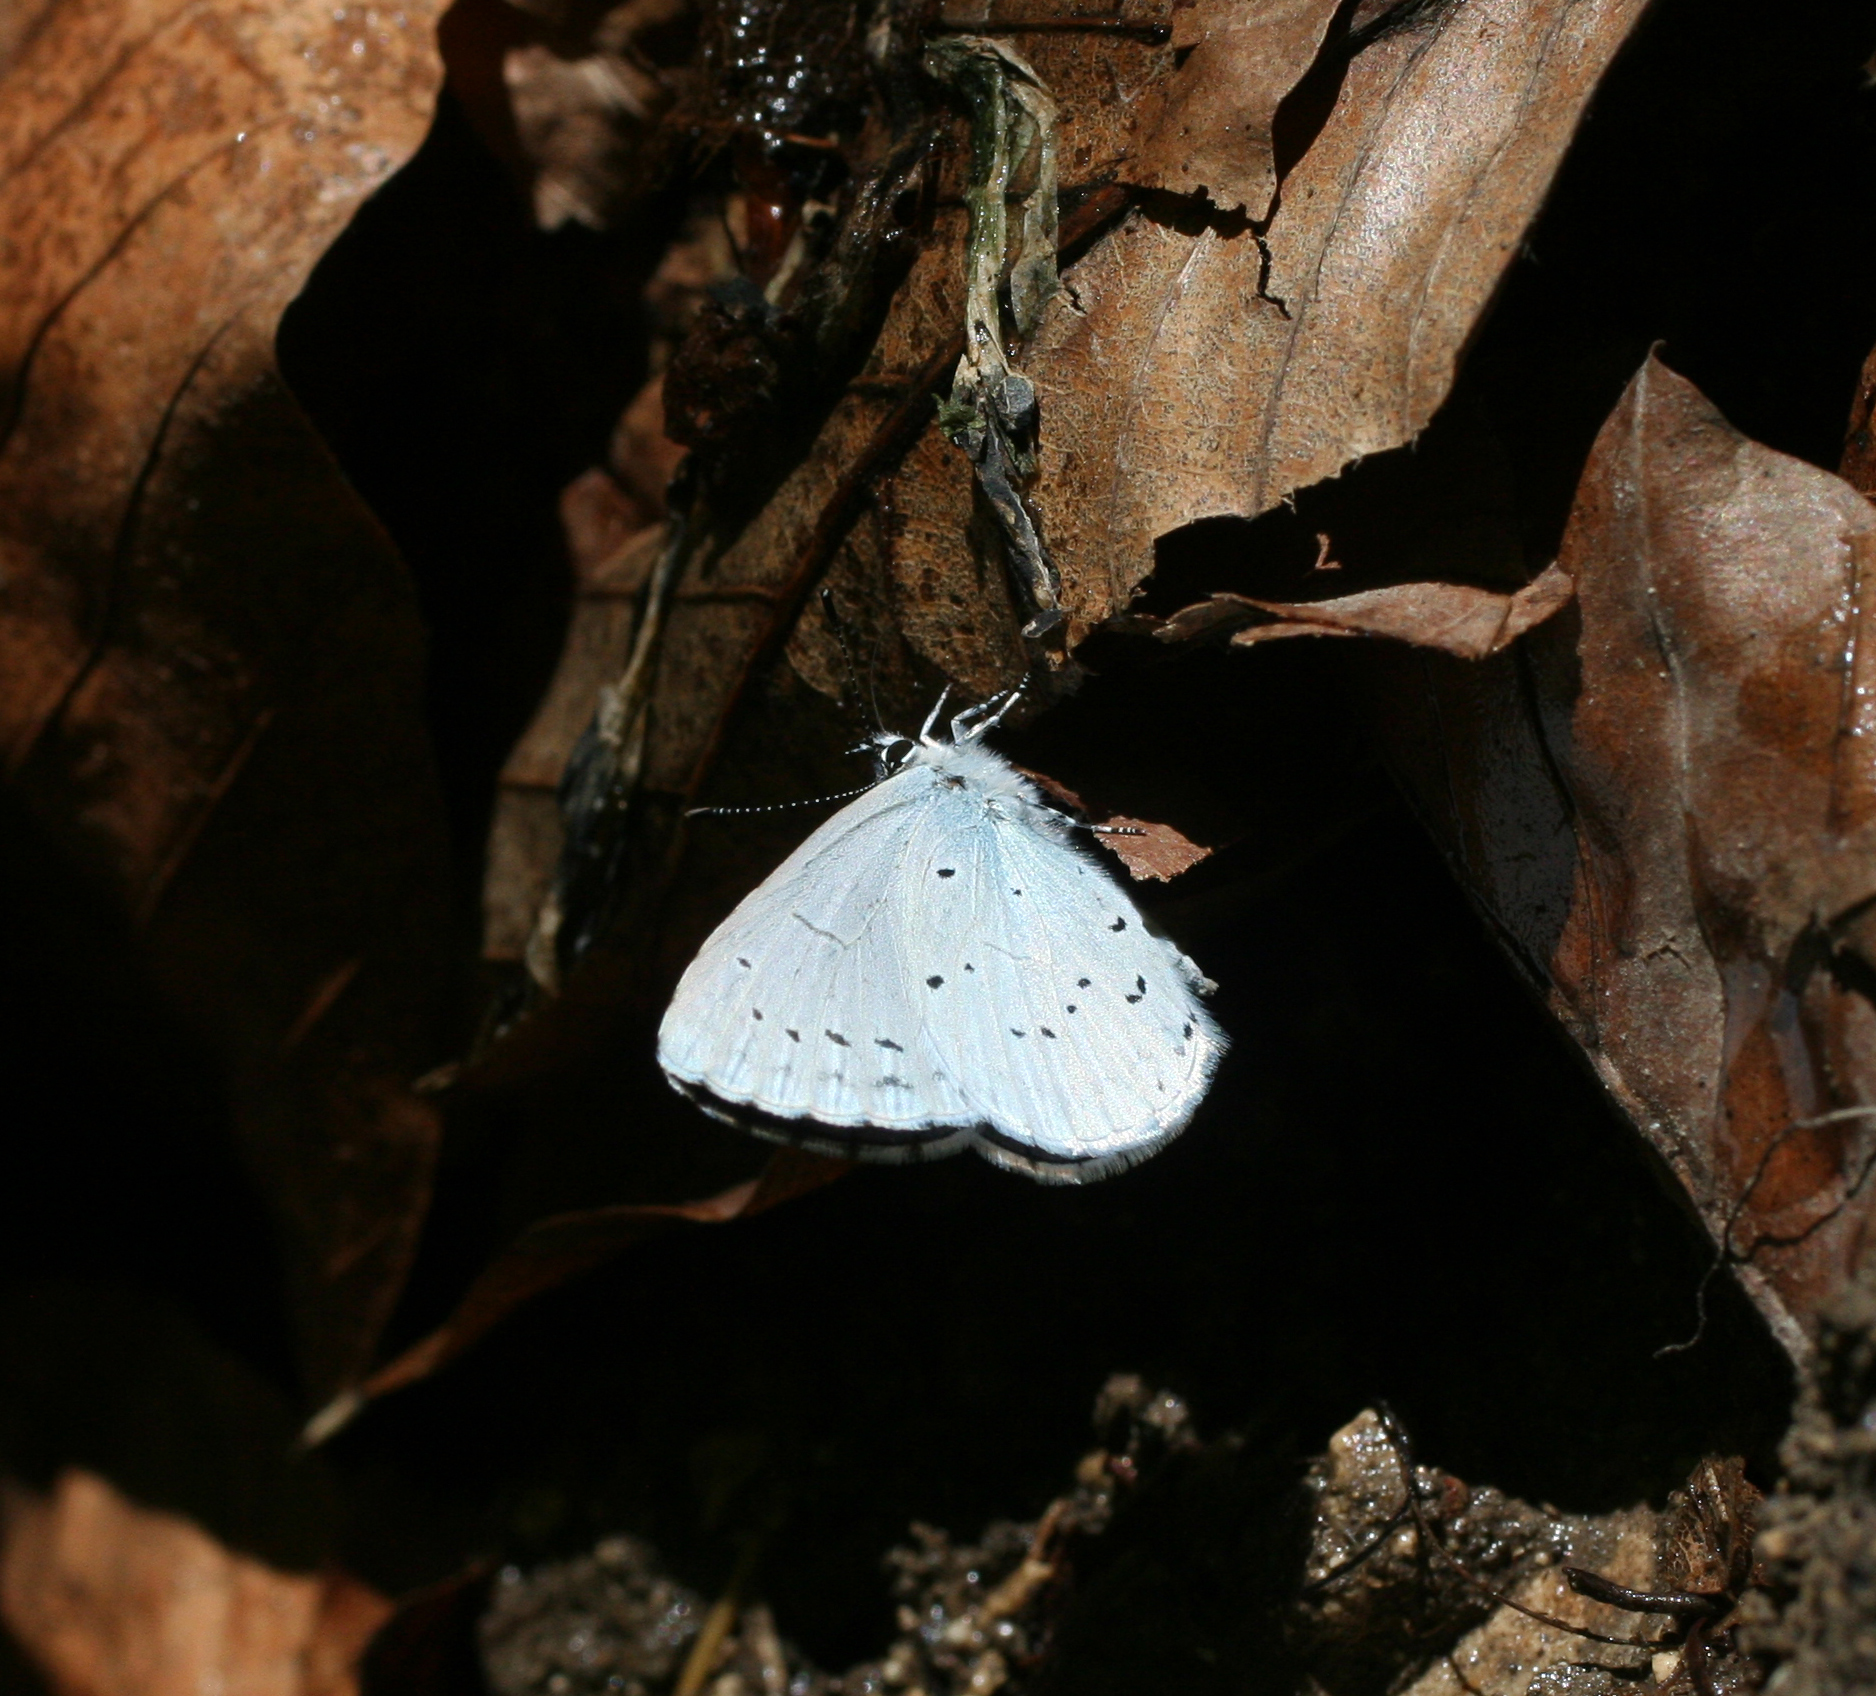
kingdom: Animalia
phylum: Arthropoda
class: Insecta
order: Lepidoptera
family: Lycaenidae
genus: Celastrina
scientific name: Celastrina argiolus
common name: Holly blue
